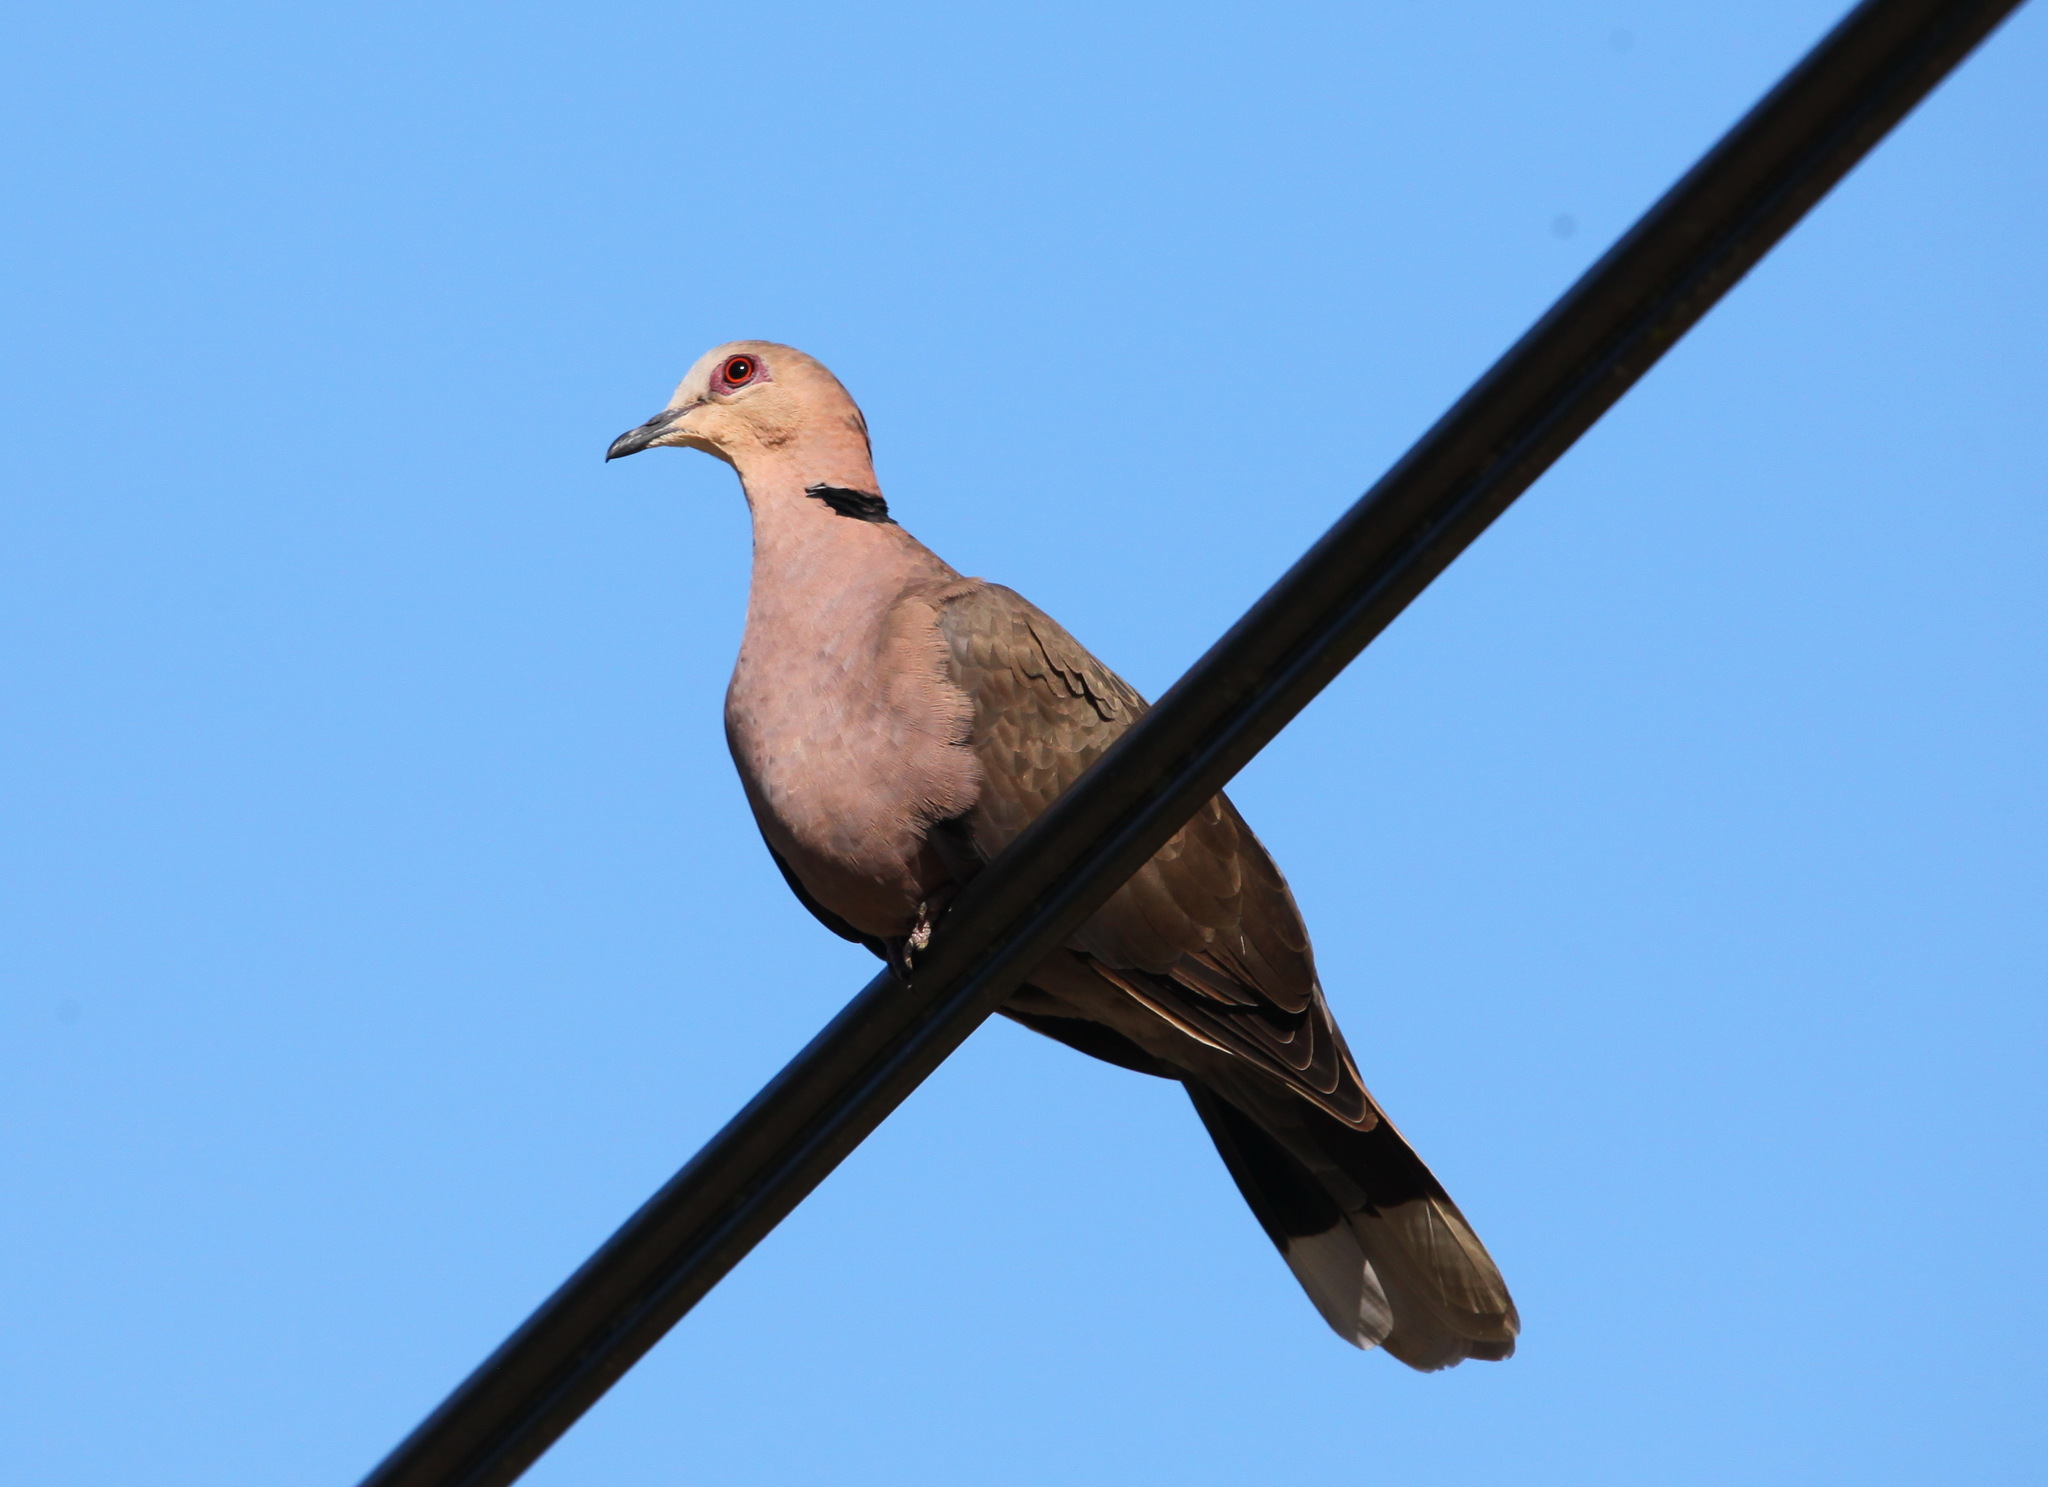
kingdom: Animalia
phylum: Chordata
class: Aves
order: Columbiformes
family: Columbidae
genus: Streptopelia
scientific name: Streptopelia semitorquata
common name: Red-eyed dove
